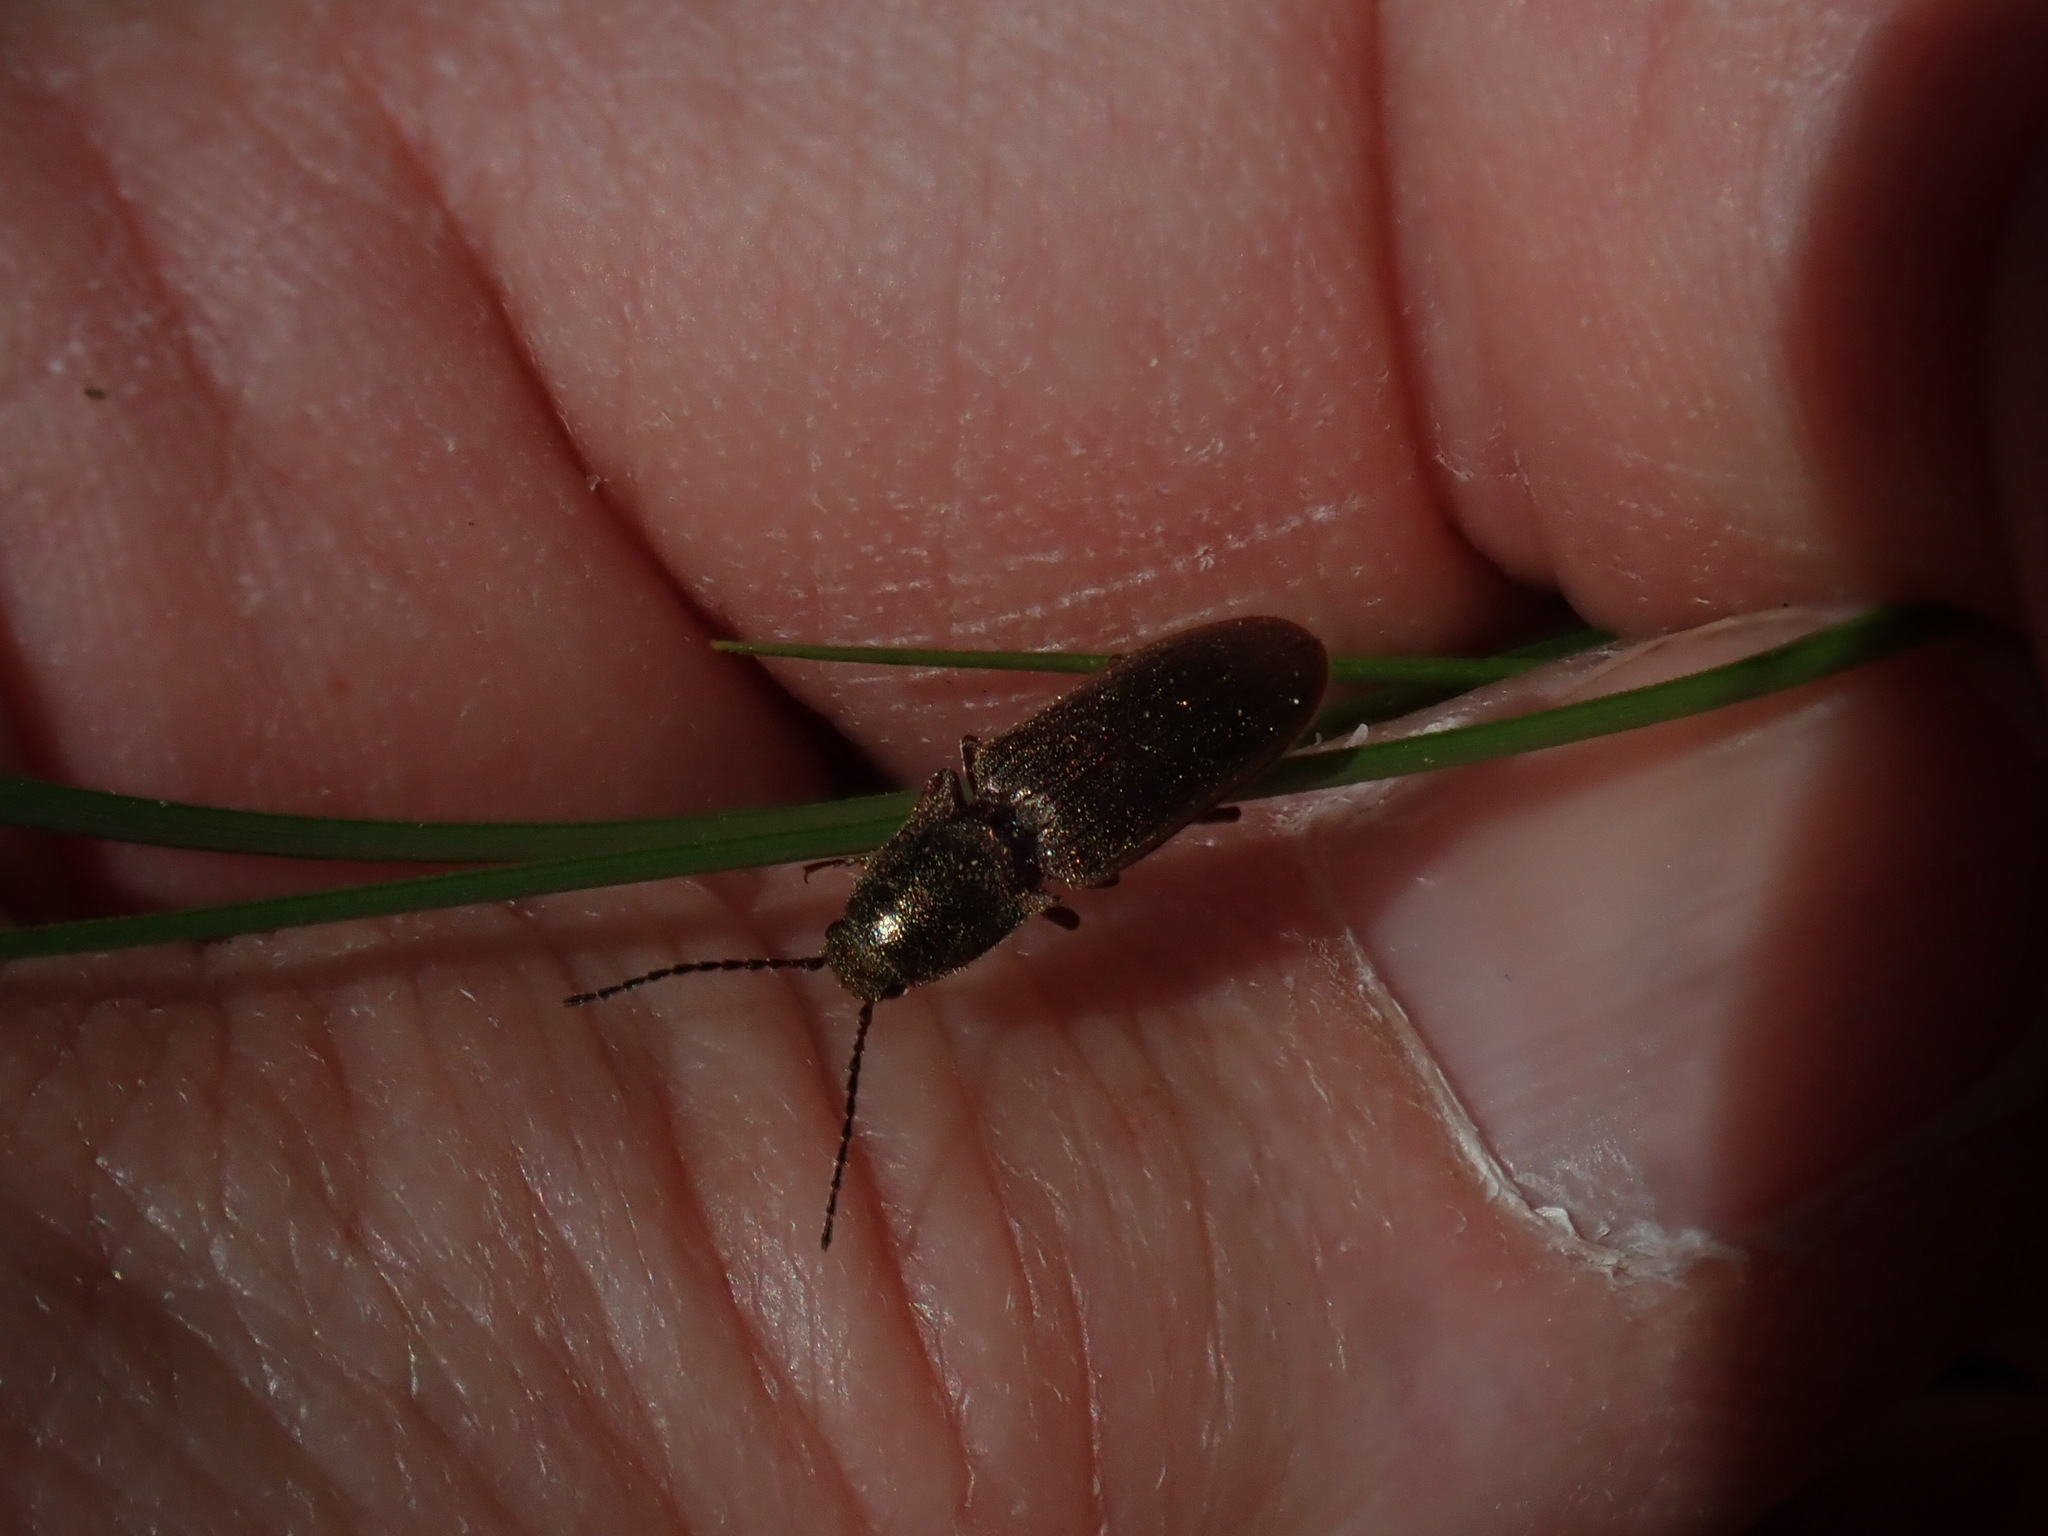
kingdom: Animalia
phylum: Arthropoda
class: Insecta
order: Coleoptera
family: Elateridae
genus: Sylvanelater
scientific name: Sylvanelater cylindriformis
